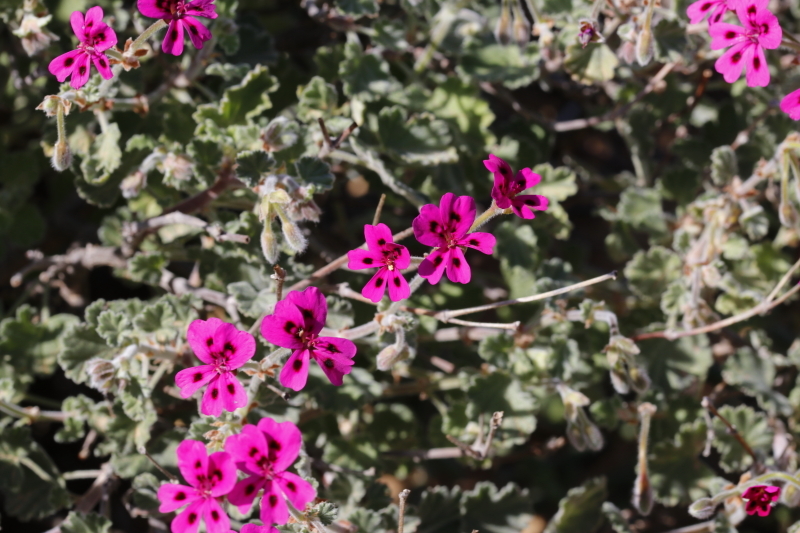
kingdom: Plantae
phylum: Tracheophyta
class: Magnoliopsida
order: Geraniales
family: Geraniaceae
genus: Pelargonium
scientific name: Pelargonium magenteum
